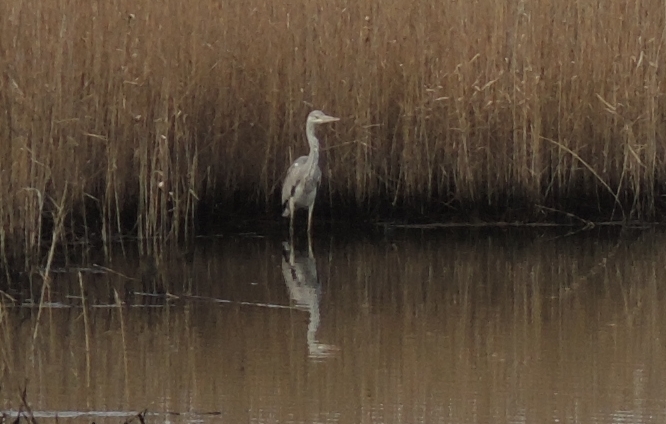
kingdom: Animalia
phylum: Chordata
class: Aves
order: Pelecaniformes
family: Ardeidae
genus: Ardea
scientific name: Ardea cinerea
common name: Grey heron
